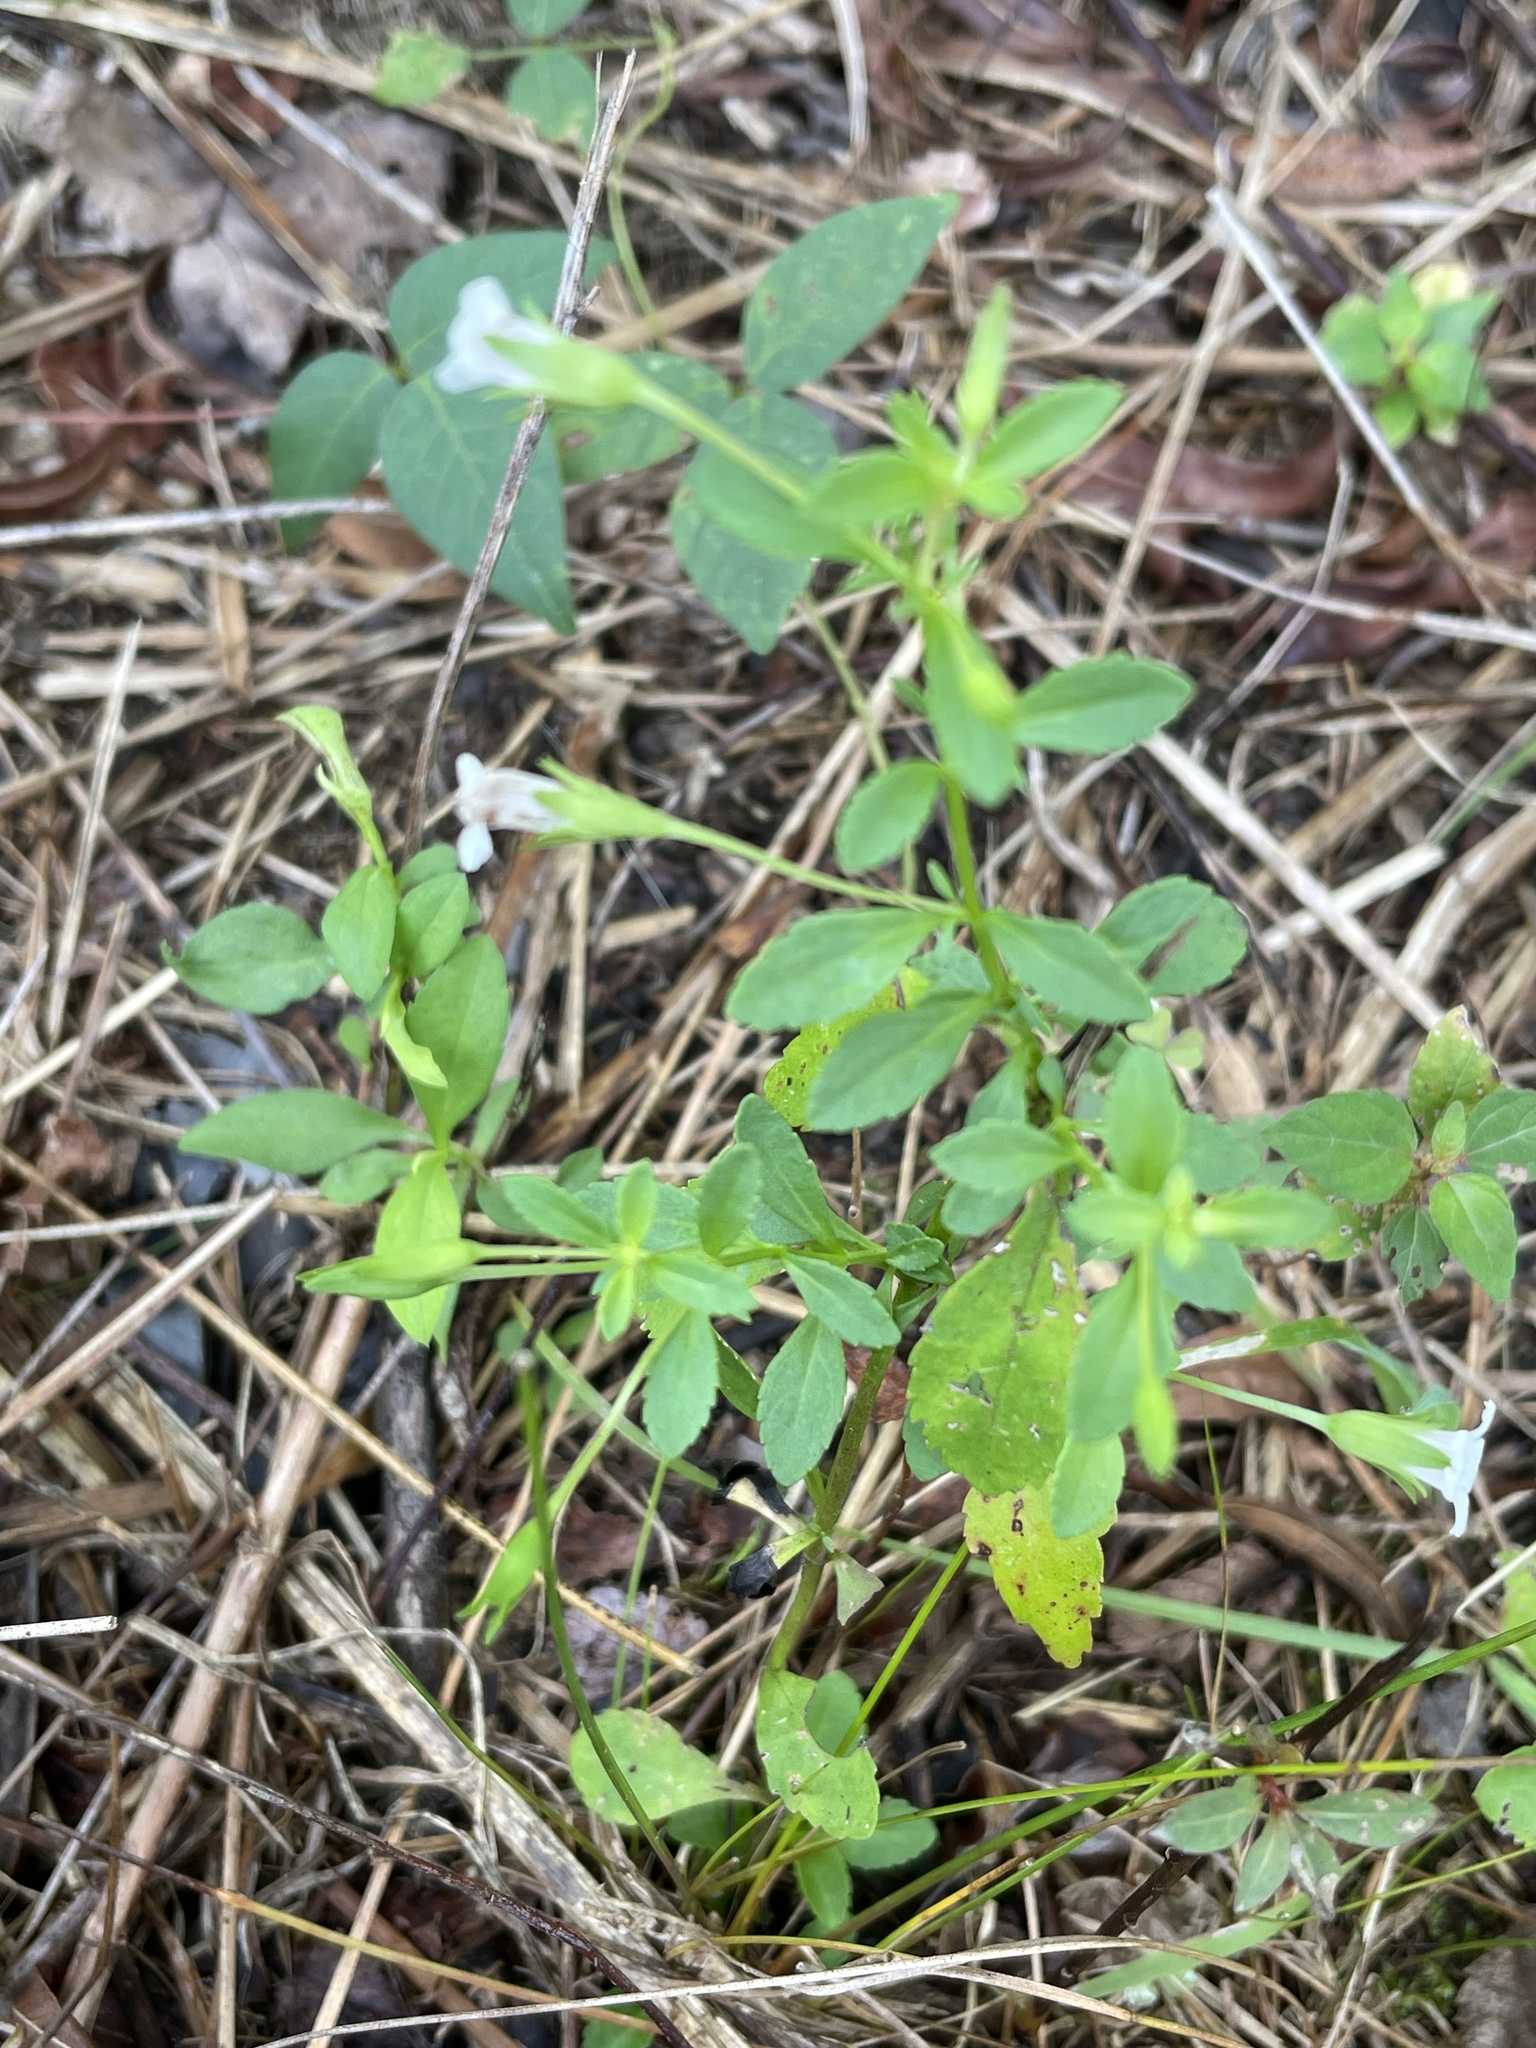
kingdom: Plantae
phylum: Tracheophyta
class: Magnoliopsida
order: Lamiales
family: Plantaginaceae
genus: Mecardonia
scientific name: Mecardonia acuminata
